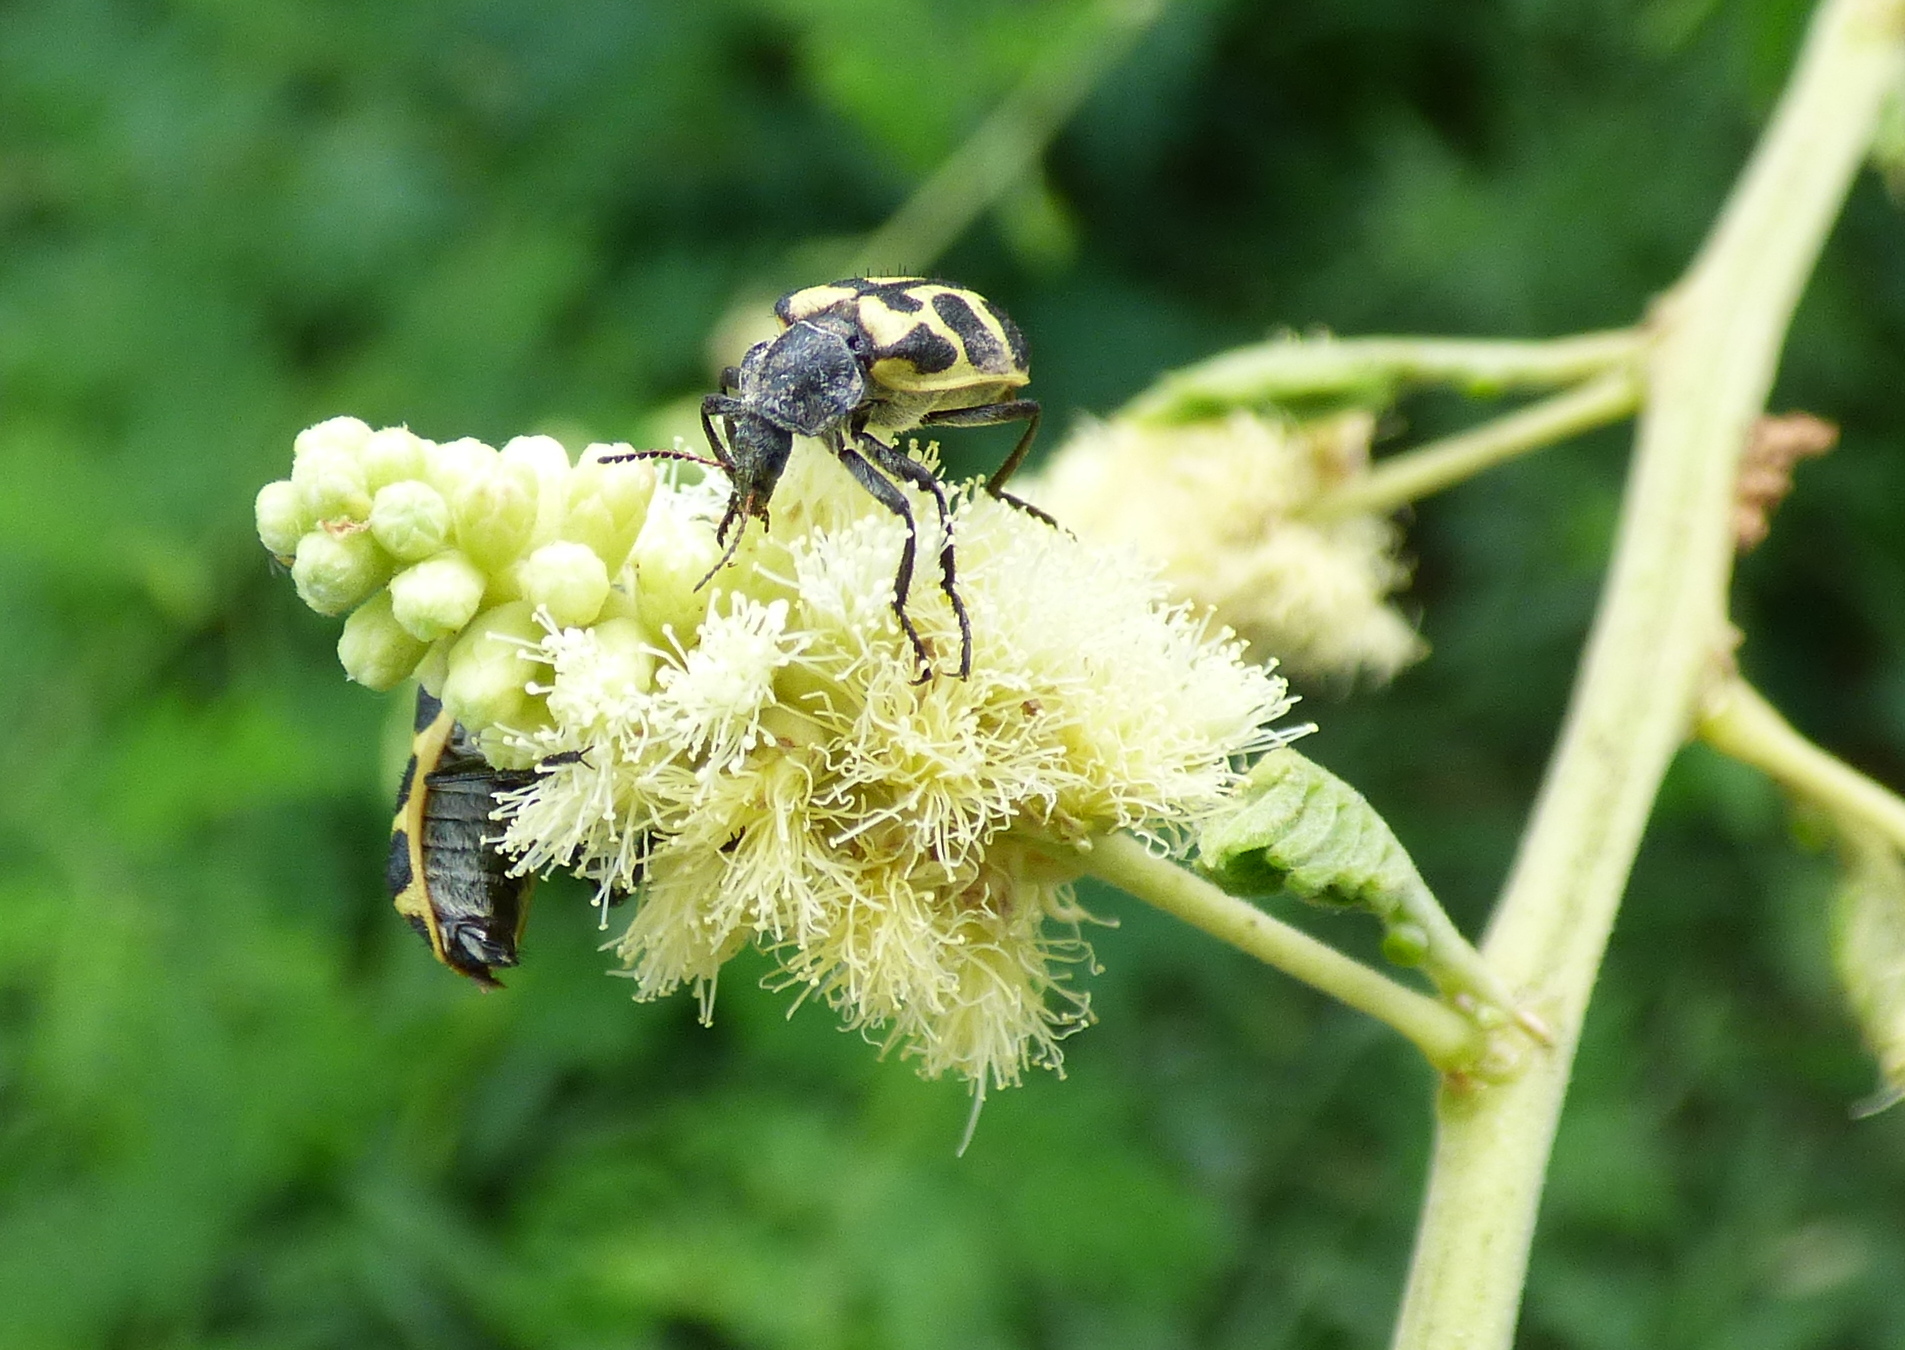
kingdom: Animalia
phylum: Arthropoda
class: Insecta
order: Coleoptera
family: Melyridae
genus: Astylus
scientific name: Astylus atromaculatus
